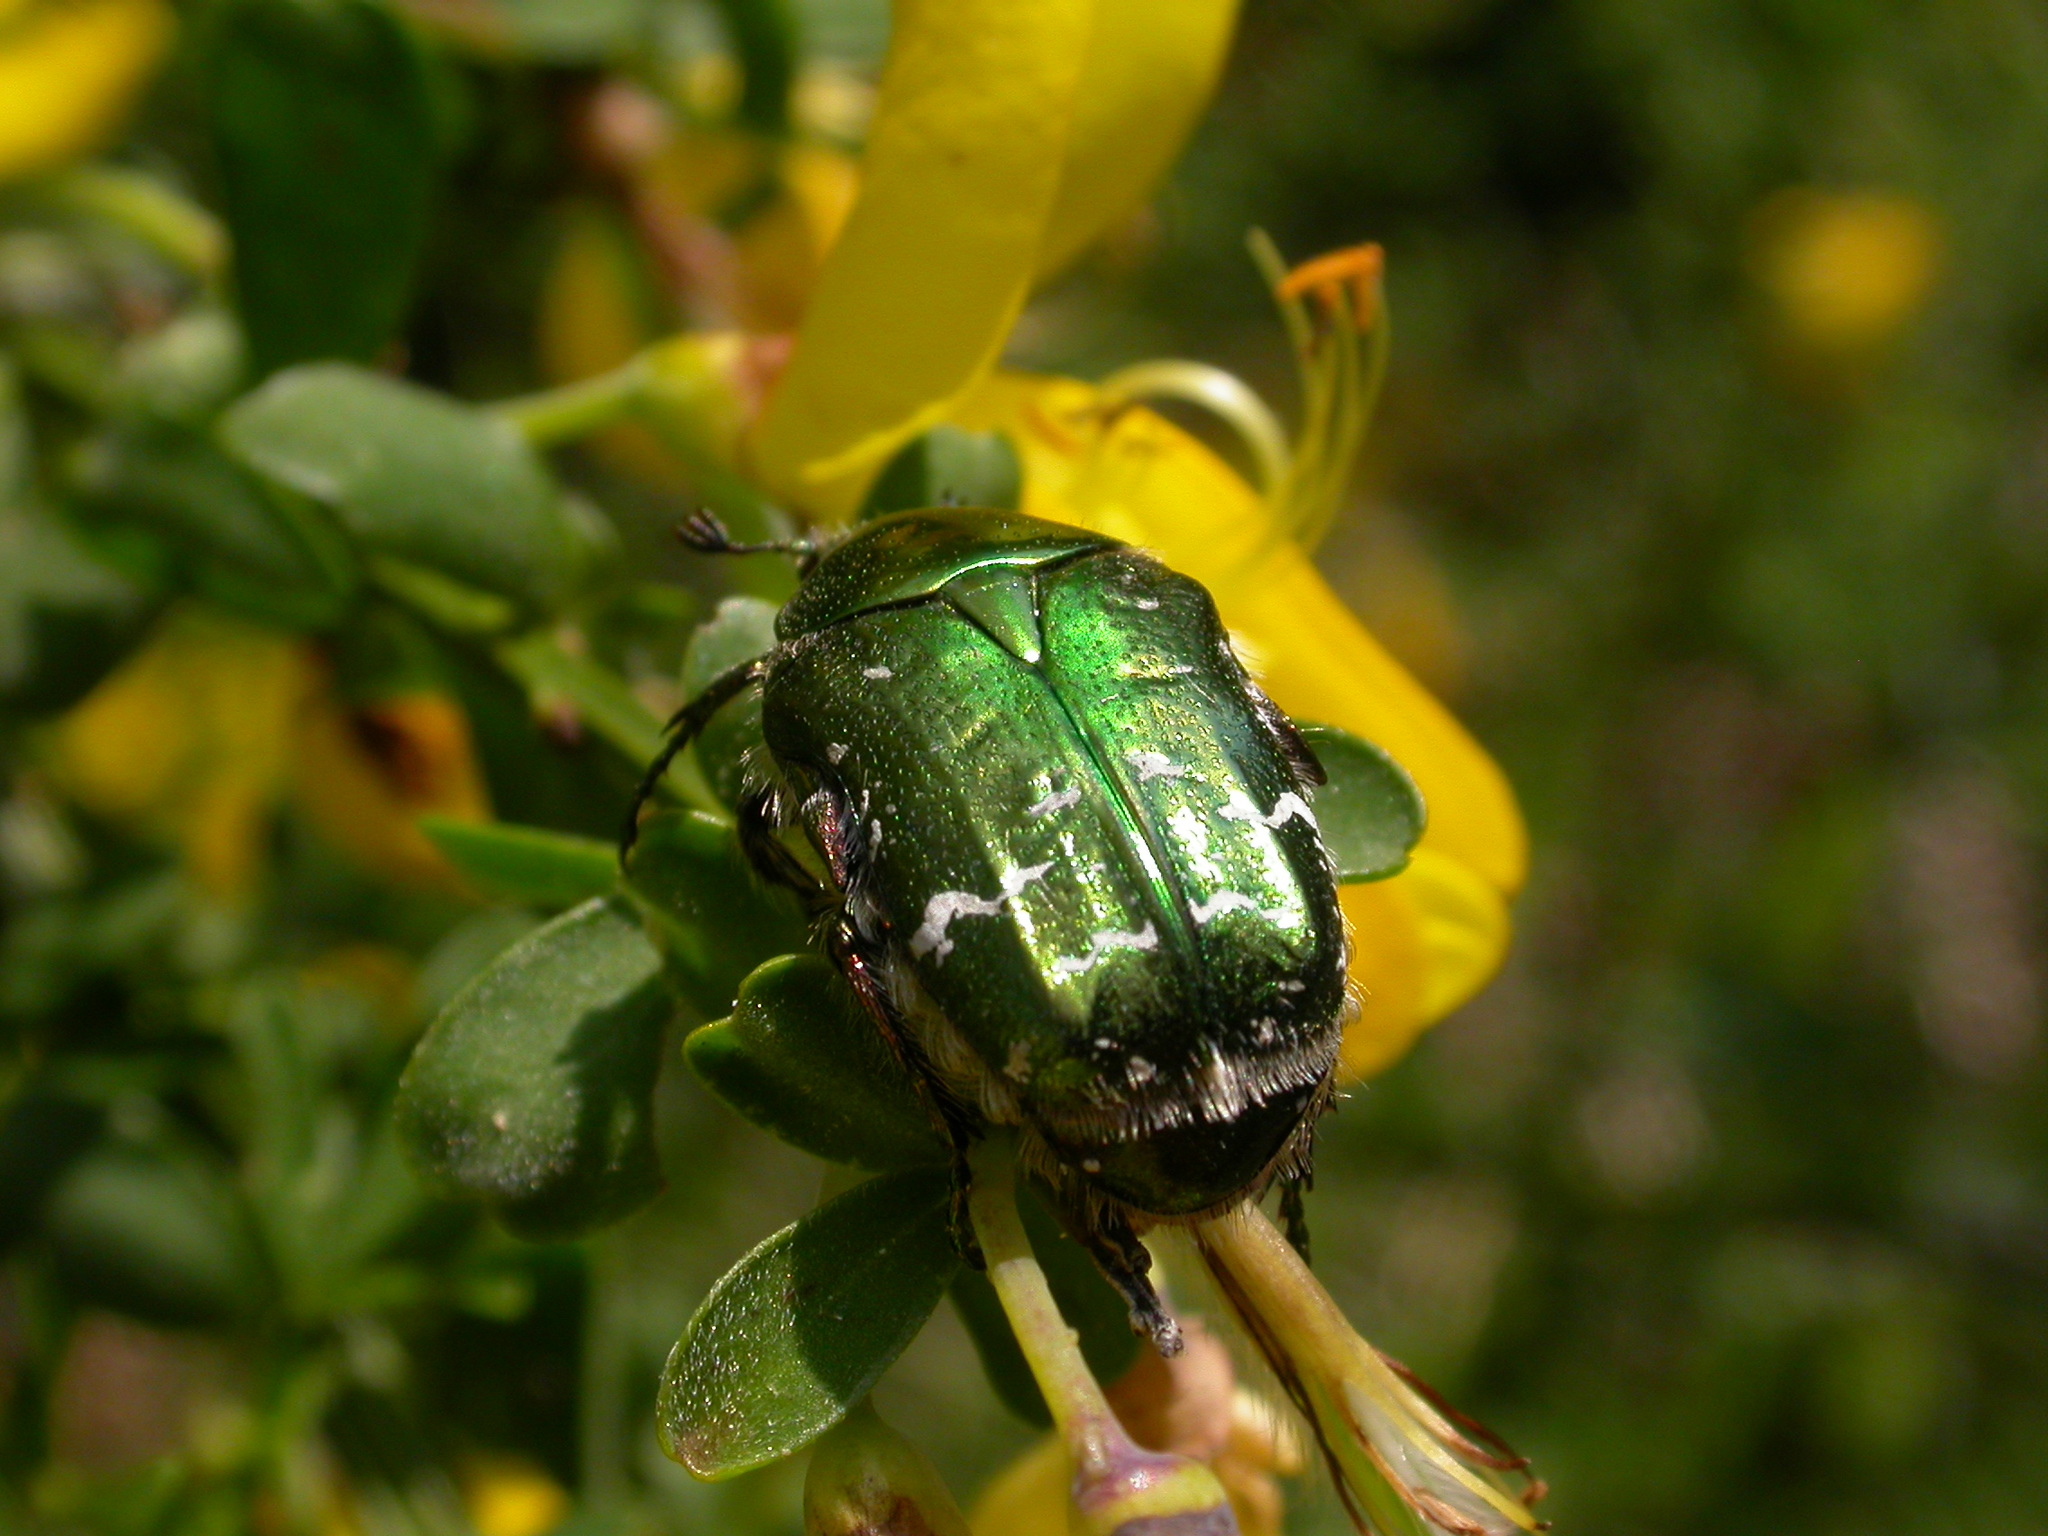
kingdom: Animalia
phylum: Arthropoda
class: Insecta
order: Coleoptera
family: Scarabaeidae
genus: Cetonia
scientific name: Cetonia aurata
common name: Rose chafer
